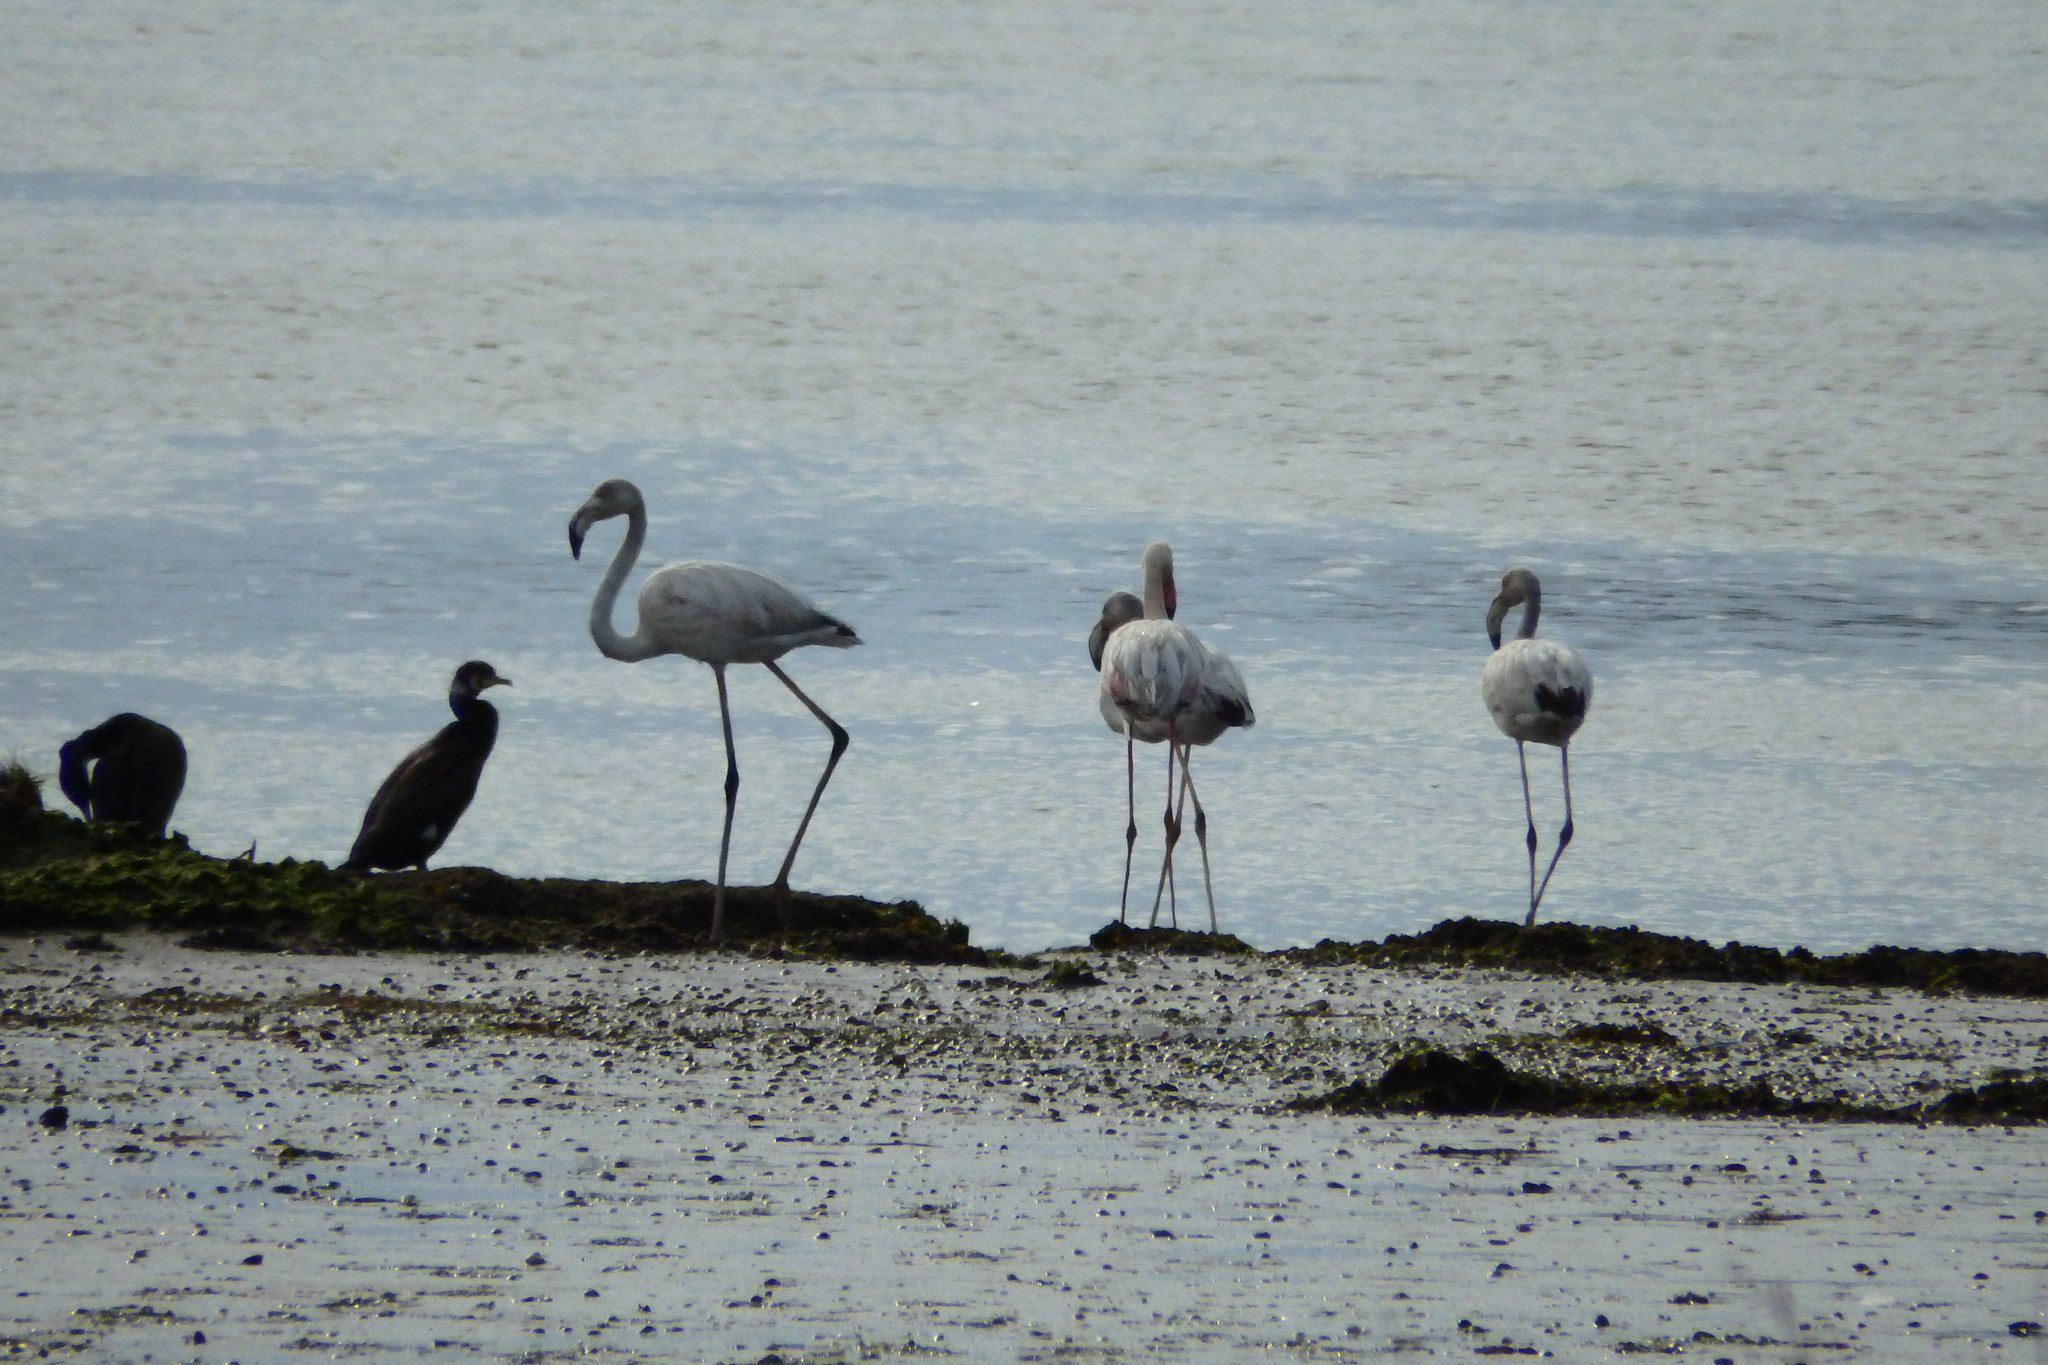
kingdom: Animalia
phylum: Chordata
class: Aves
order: Phoenicopteriformes
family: Phoenicopteridae
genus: Phoenicopterus
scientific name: Phoenicopterus roseus
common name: Greater flamingo
